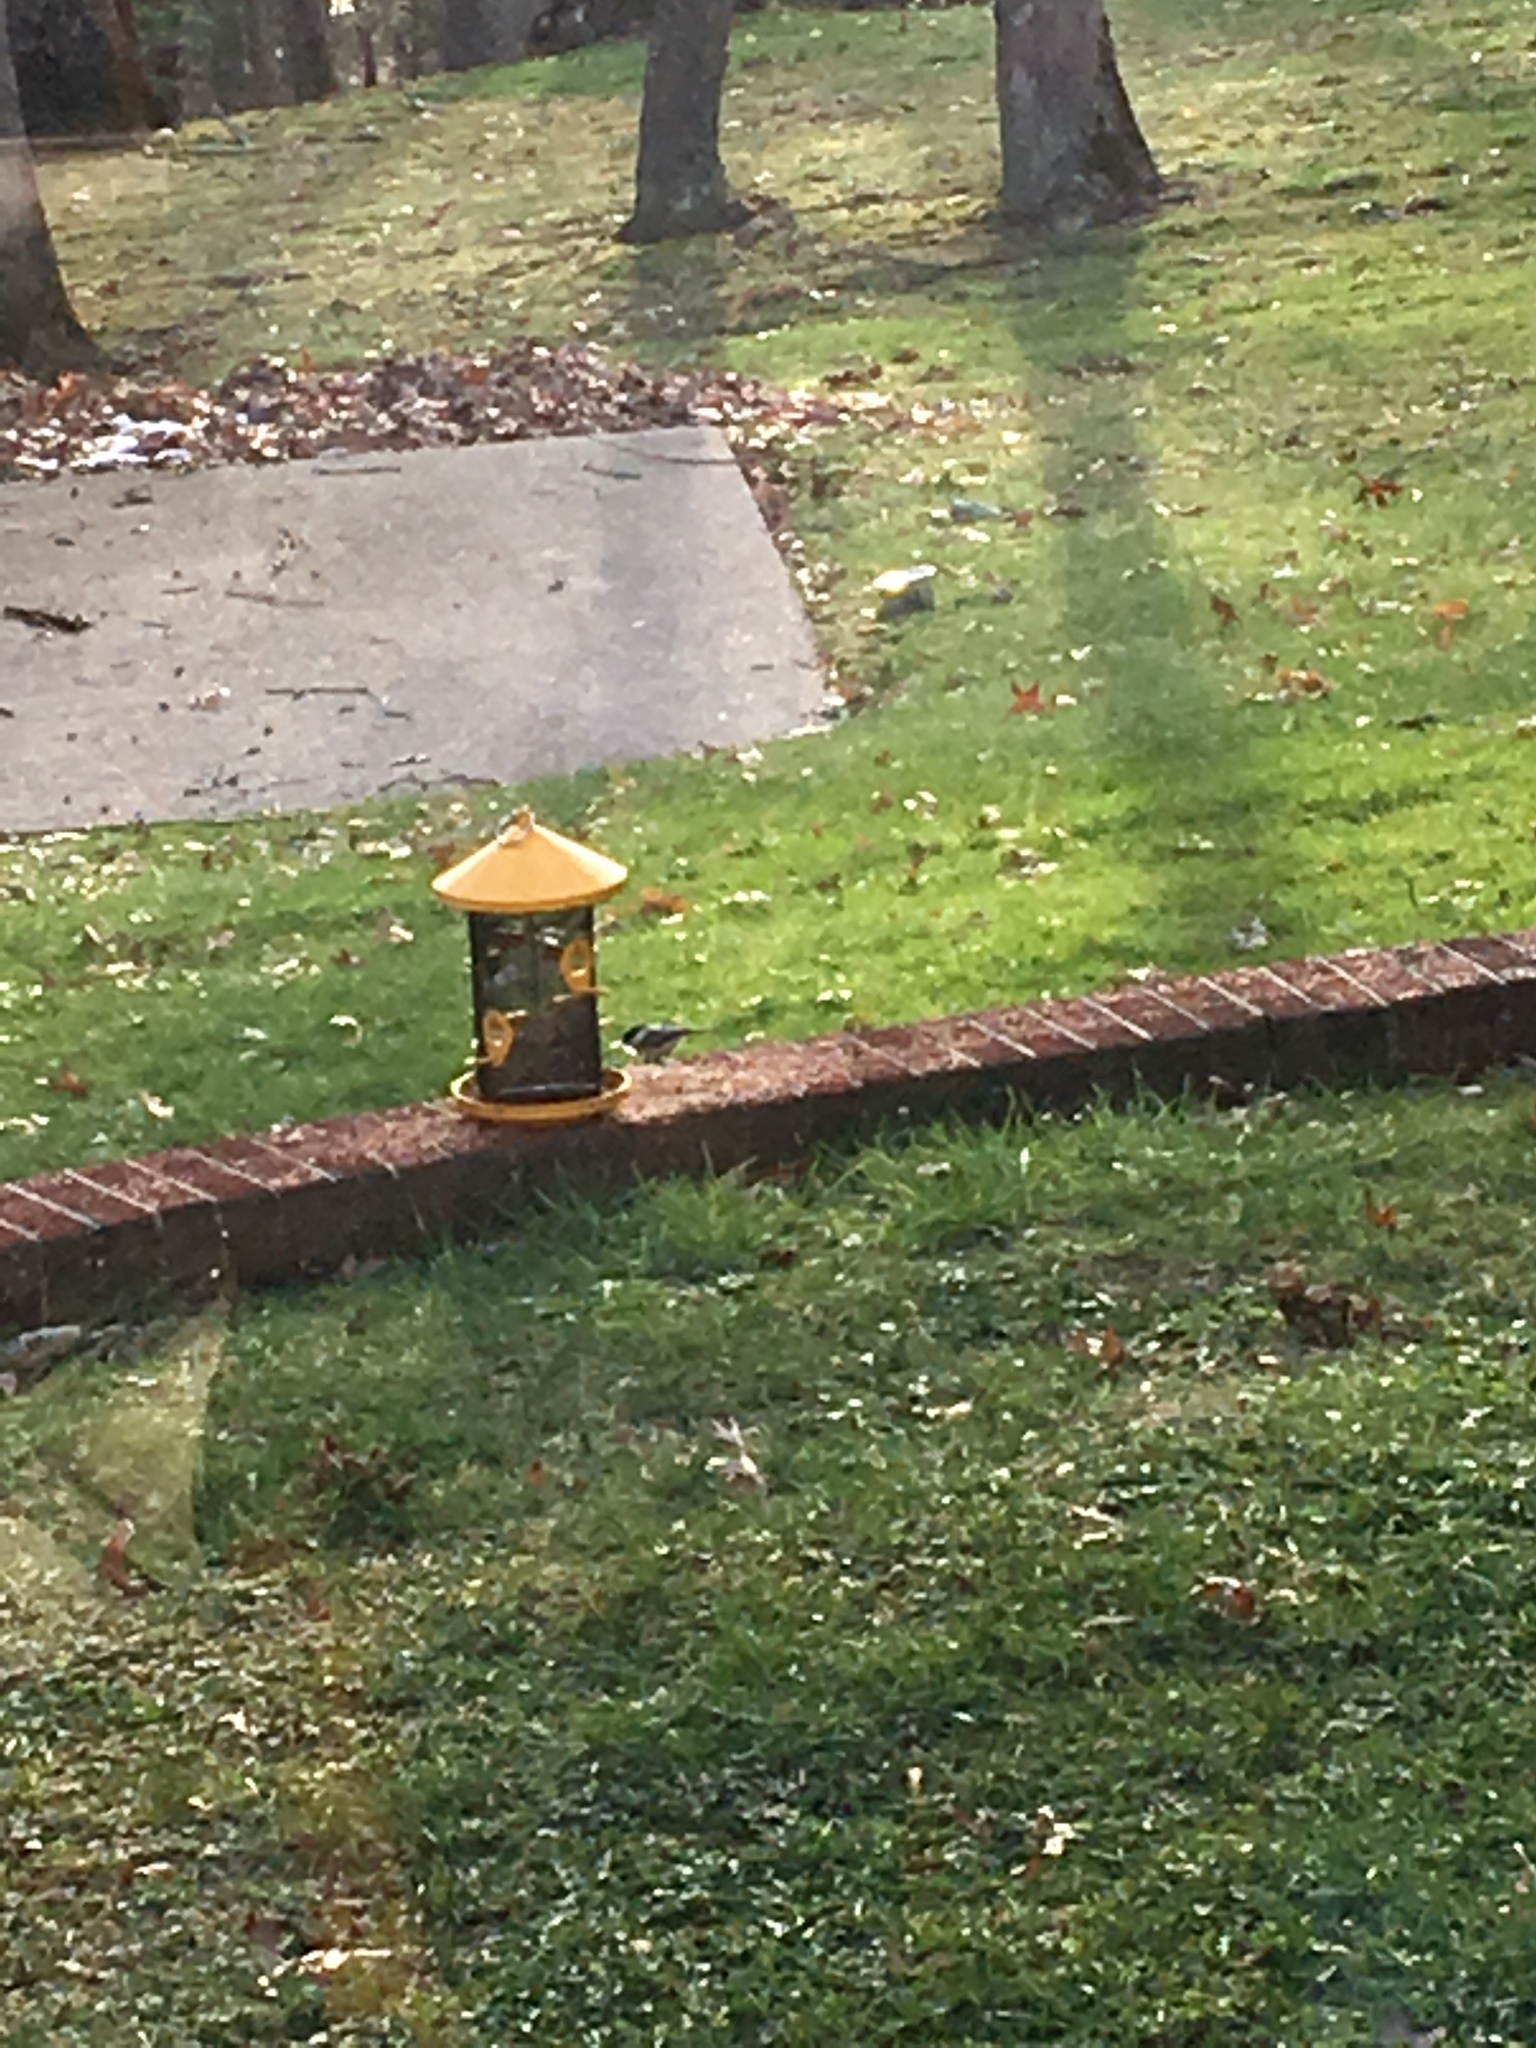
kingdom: Animalia
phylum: Chordata
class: Aves
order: Passeriformes
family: Paridae
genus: Poecile
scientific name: Poecile
